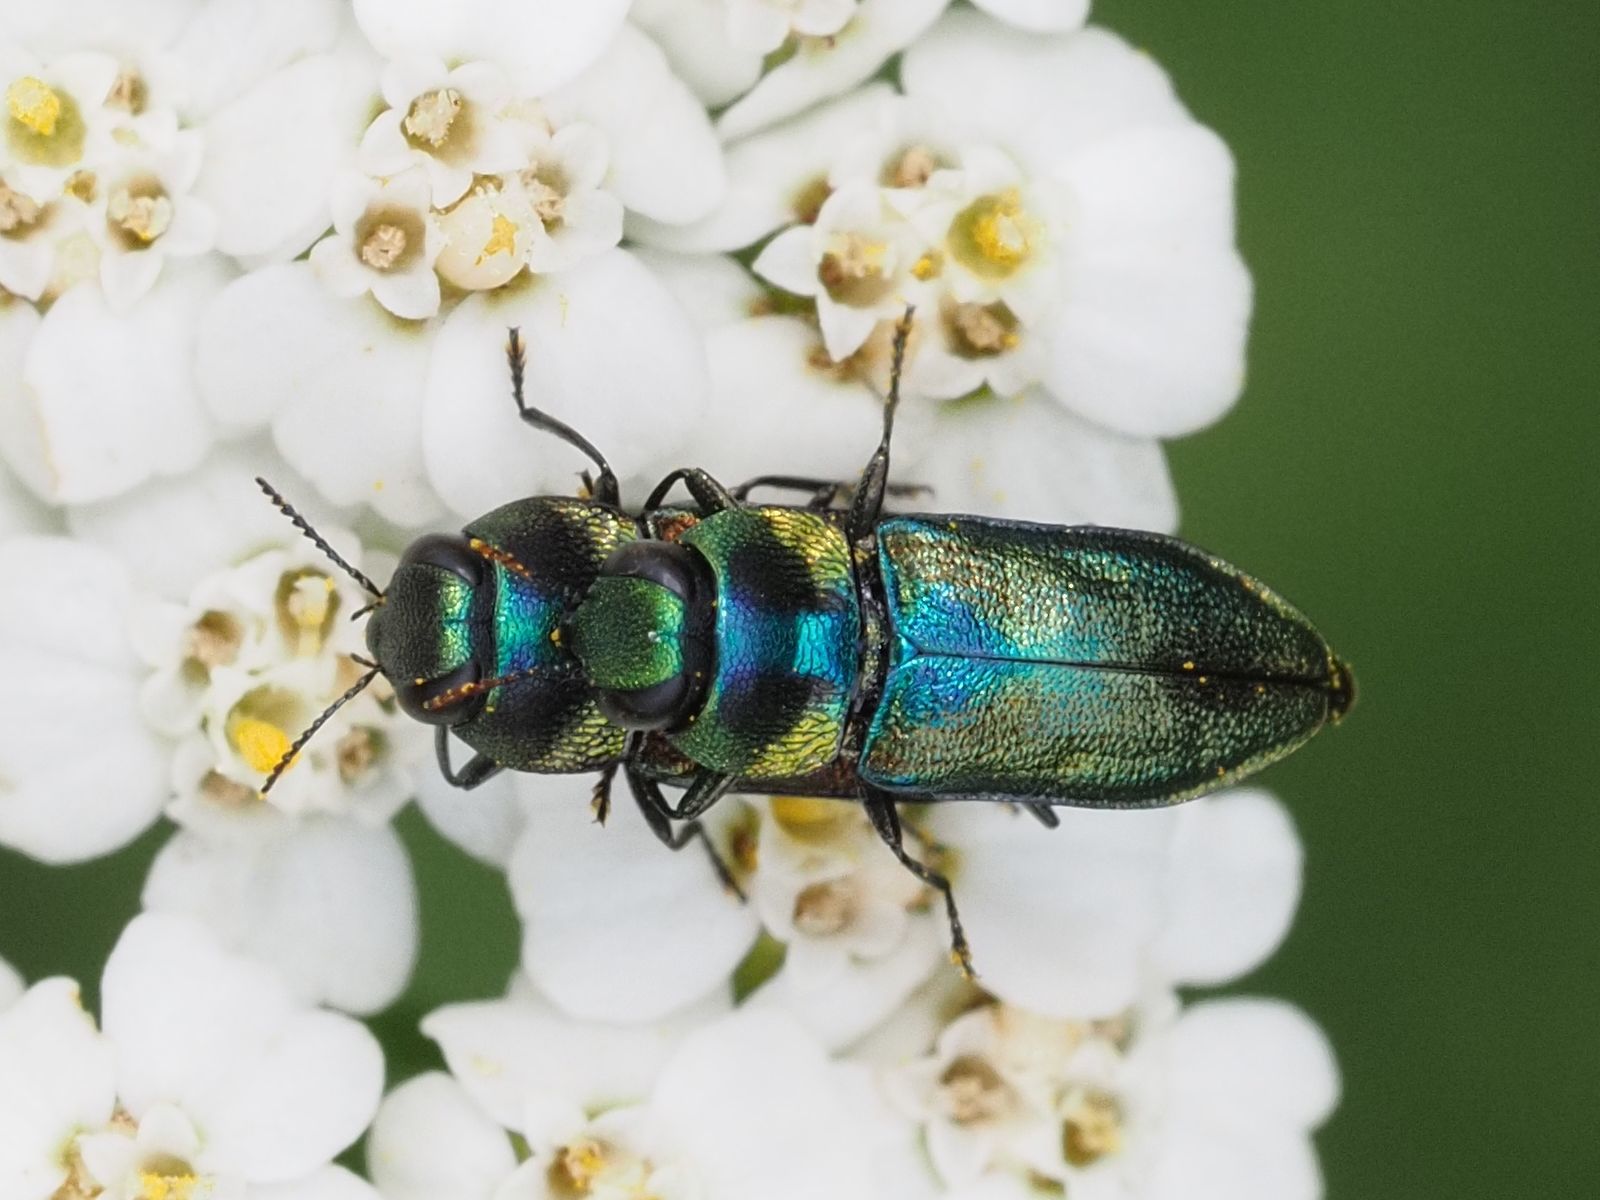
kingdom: Animalia
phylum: Arthropoda
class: Insecta
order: Coleoptera
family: Buprestidae
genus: Anthaxia
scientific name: Anthaxia podolica
